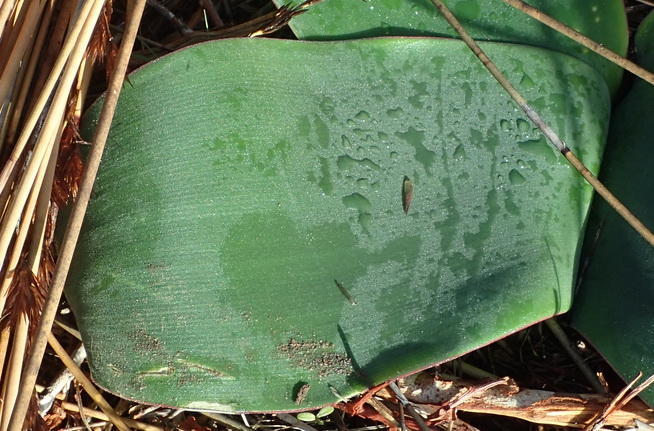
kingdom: Plantae
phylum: Tracheophyta
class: Liliopsida
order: Asparagales
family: Amaryllidaceae
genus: Brunsvigia
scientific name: Brunsvigia orientalis
